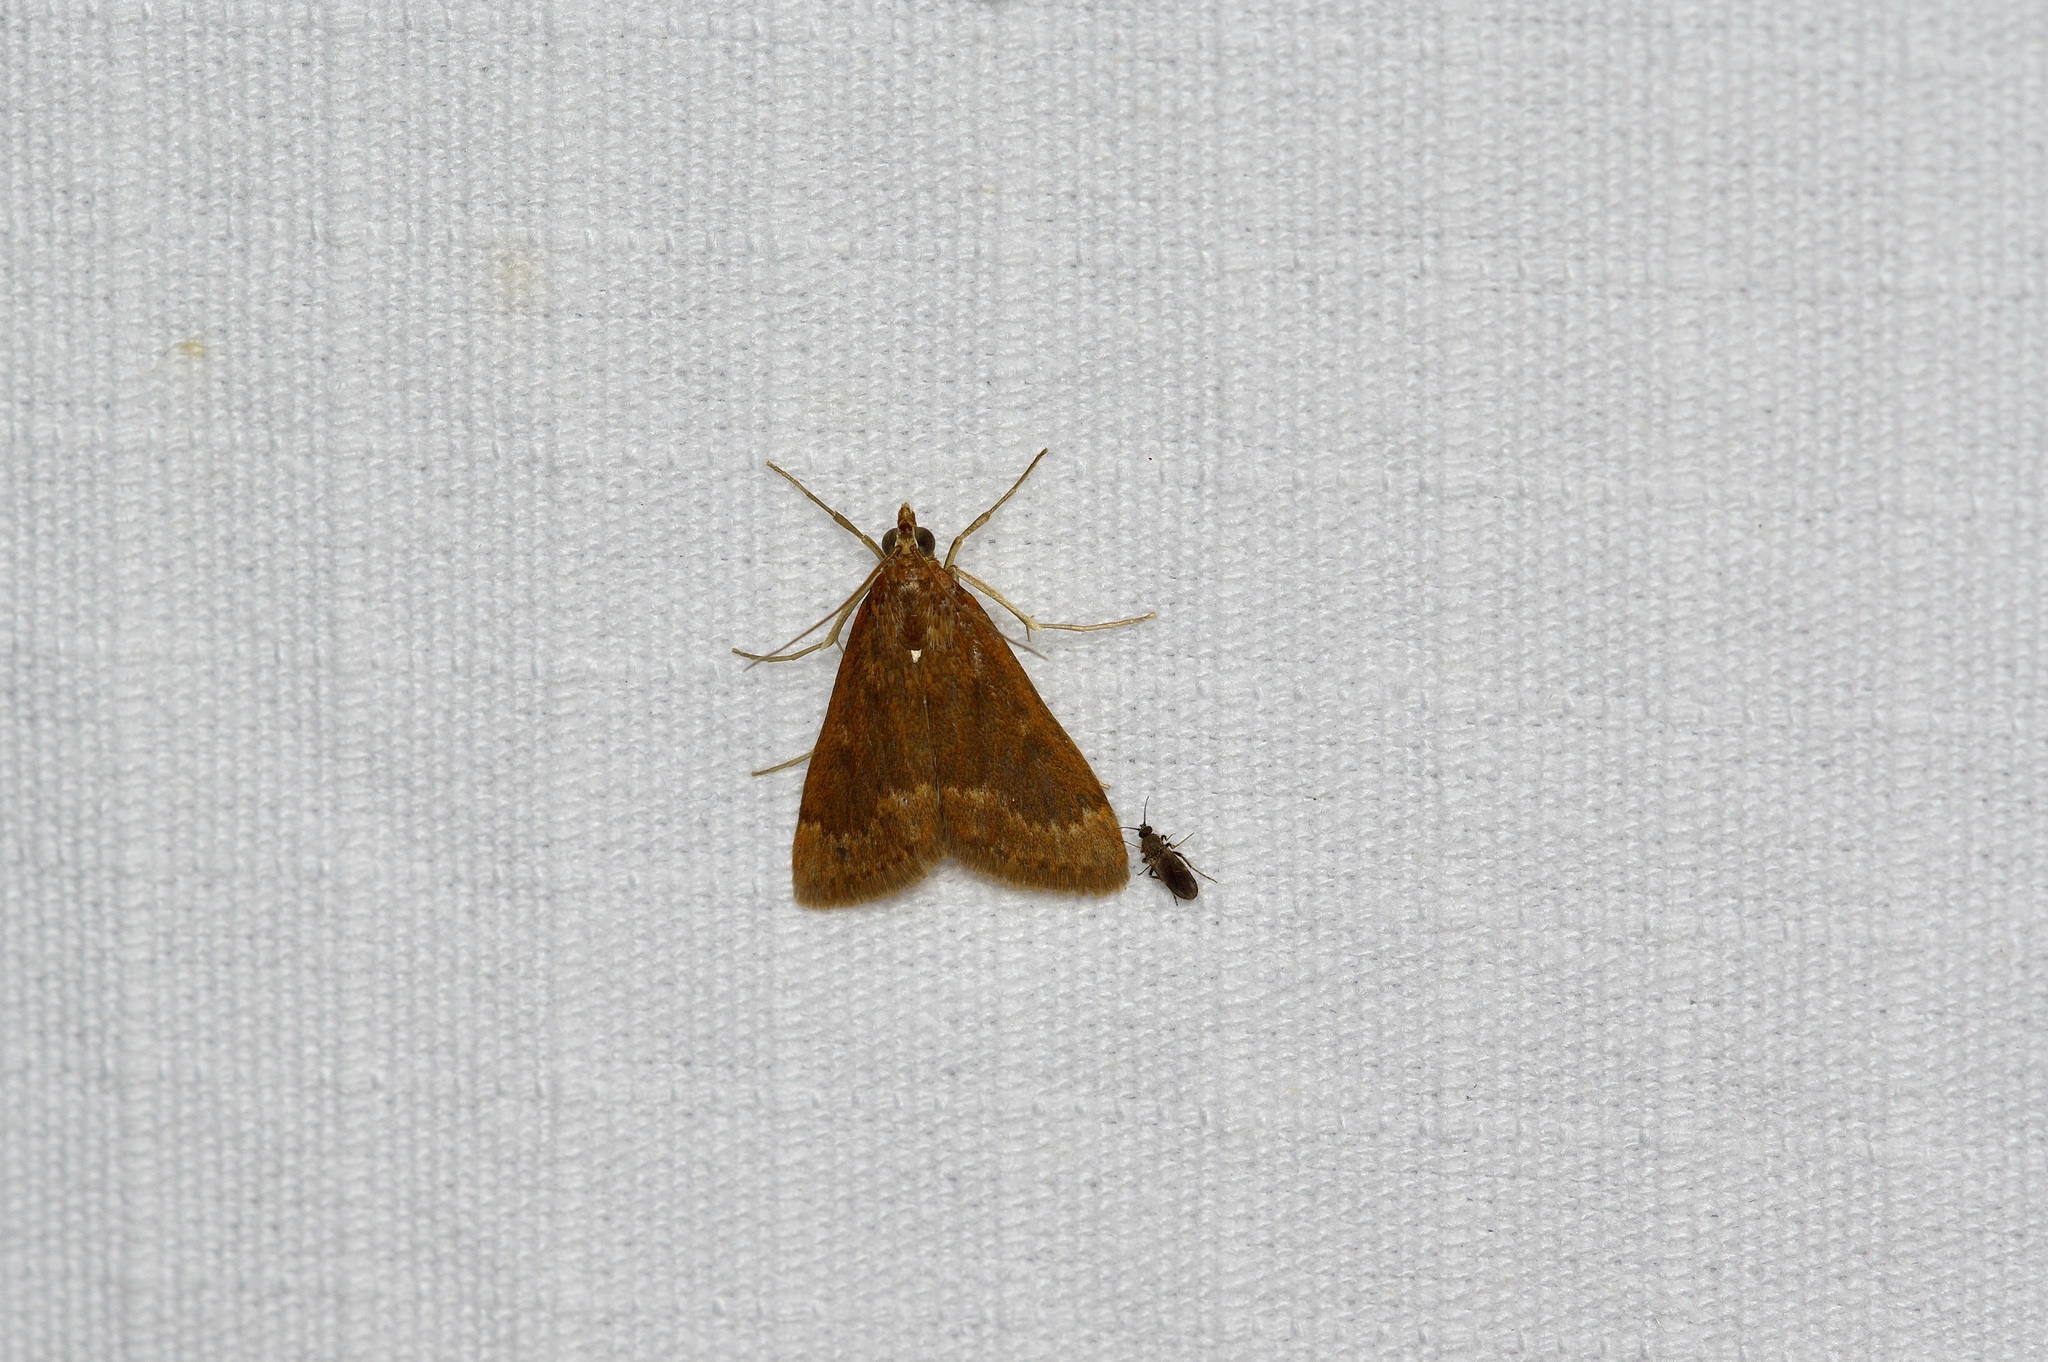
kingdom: Animalia
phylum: Arthropoda
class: Insecta
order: Lepidoptera
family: Crambidae
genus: Achyra
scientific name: Achyra rantalis
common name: Garden webworm
